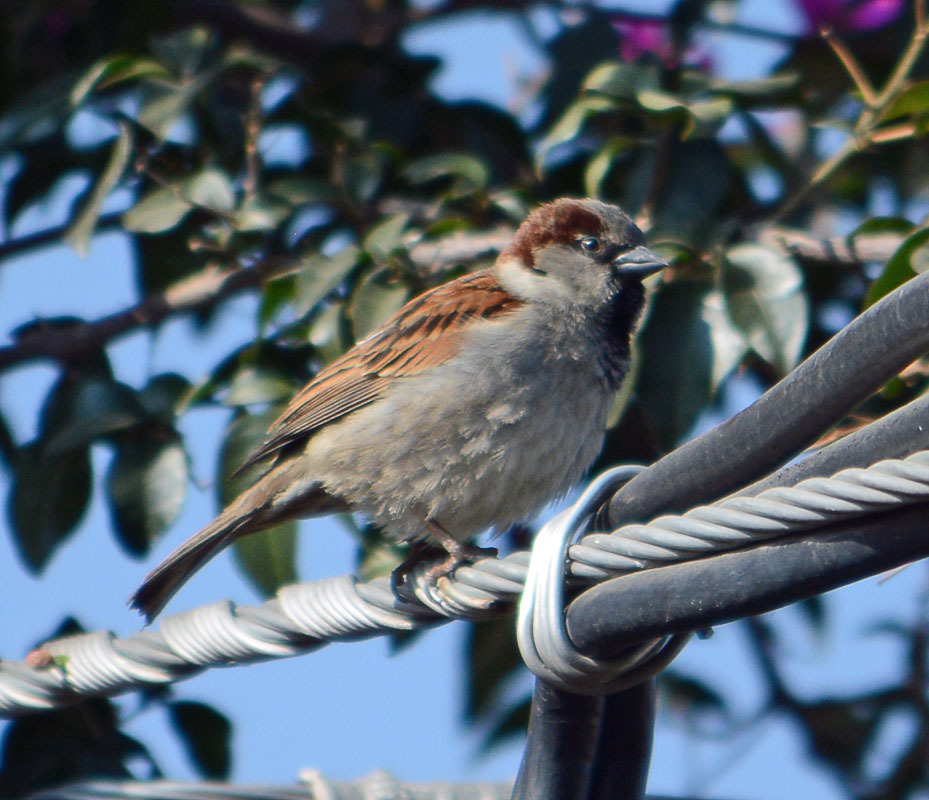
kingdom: Animalia
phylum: Chordata
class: Aves
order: Passeriformes
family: Passeridae
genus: Passer
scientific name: Passer domesticus
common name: House sparrow
